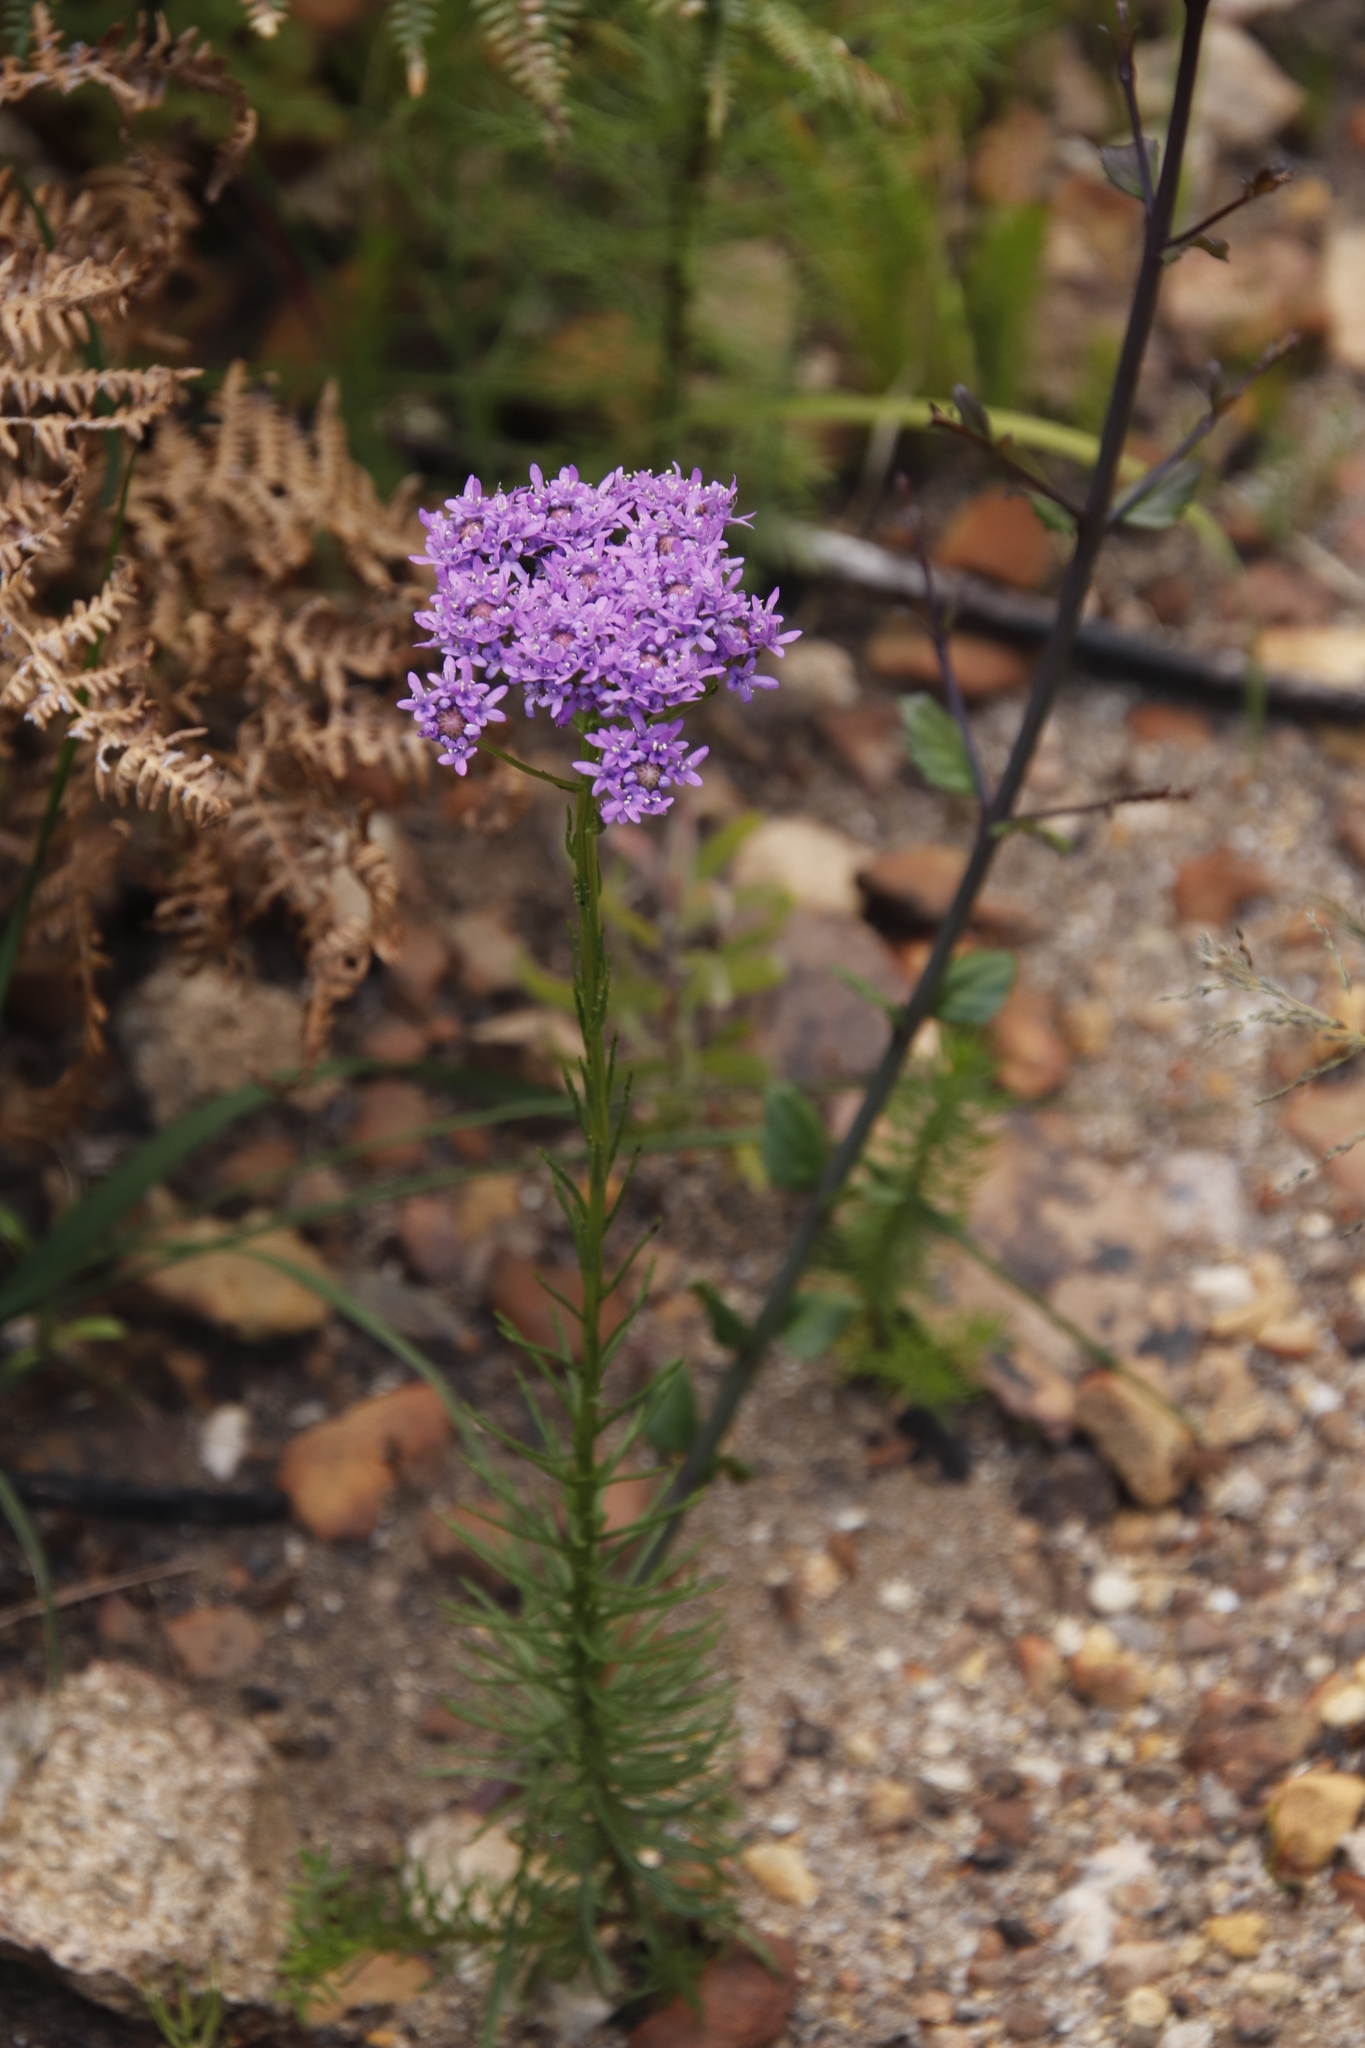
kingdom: Plantae
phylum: Tracheophyta
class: Magnoliopsida
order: Lamiales
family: Scrophulariaceae
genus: Pseudoselago
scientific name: Pseudoselago spuria
